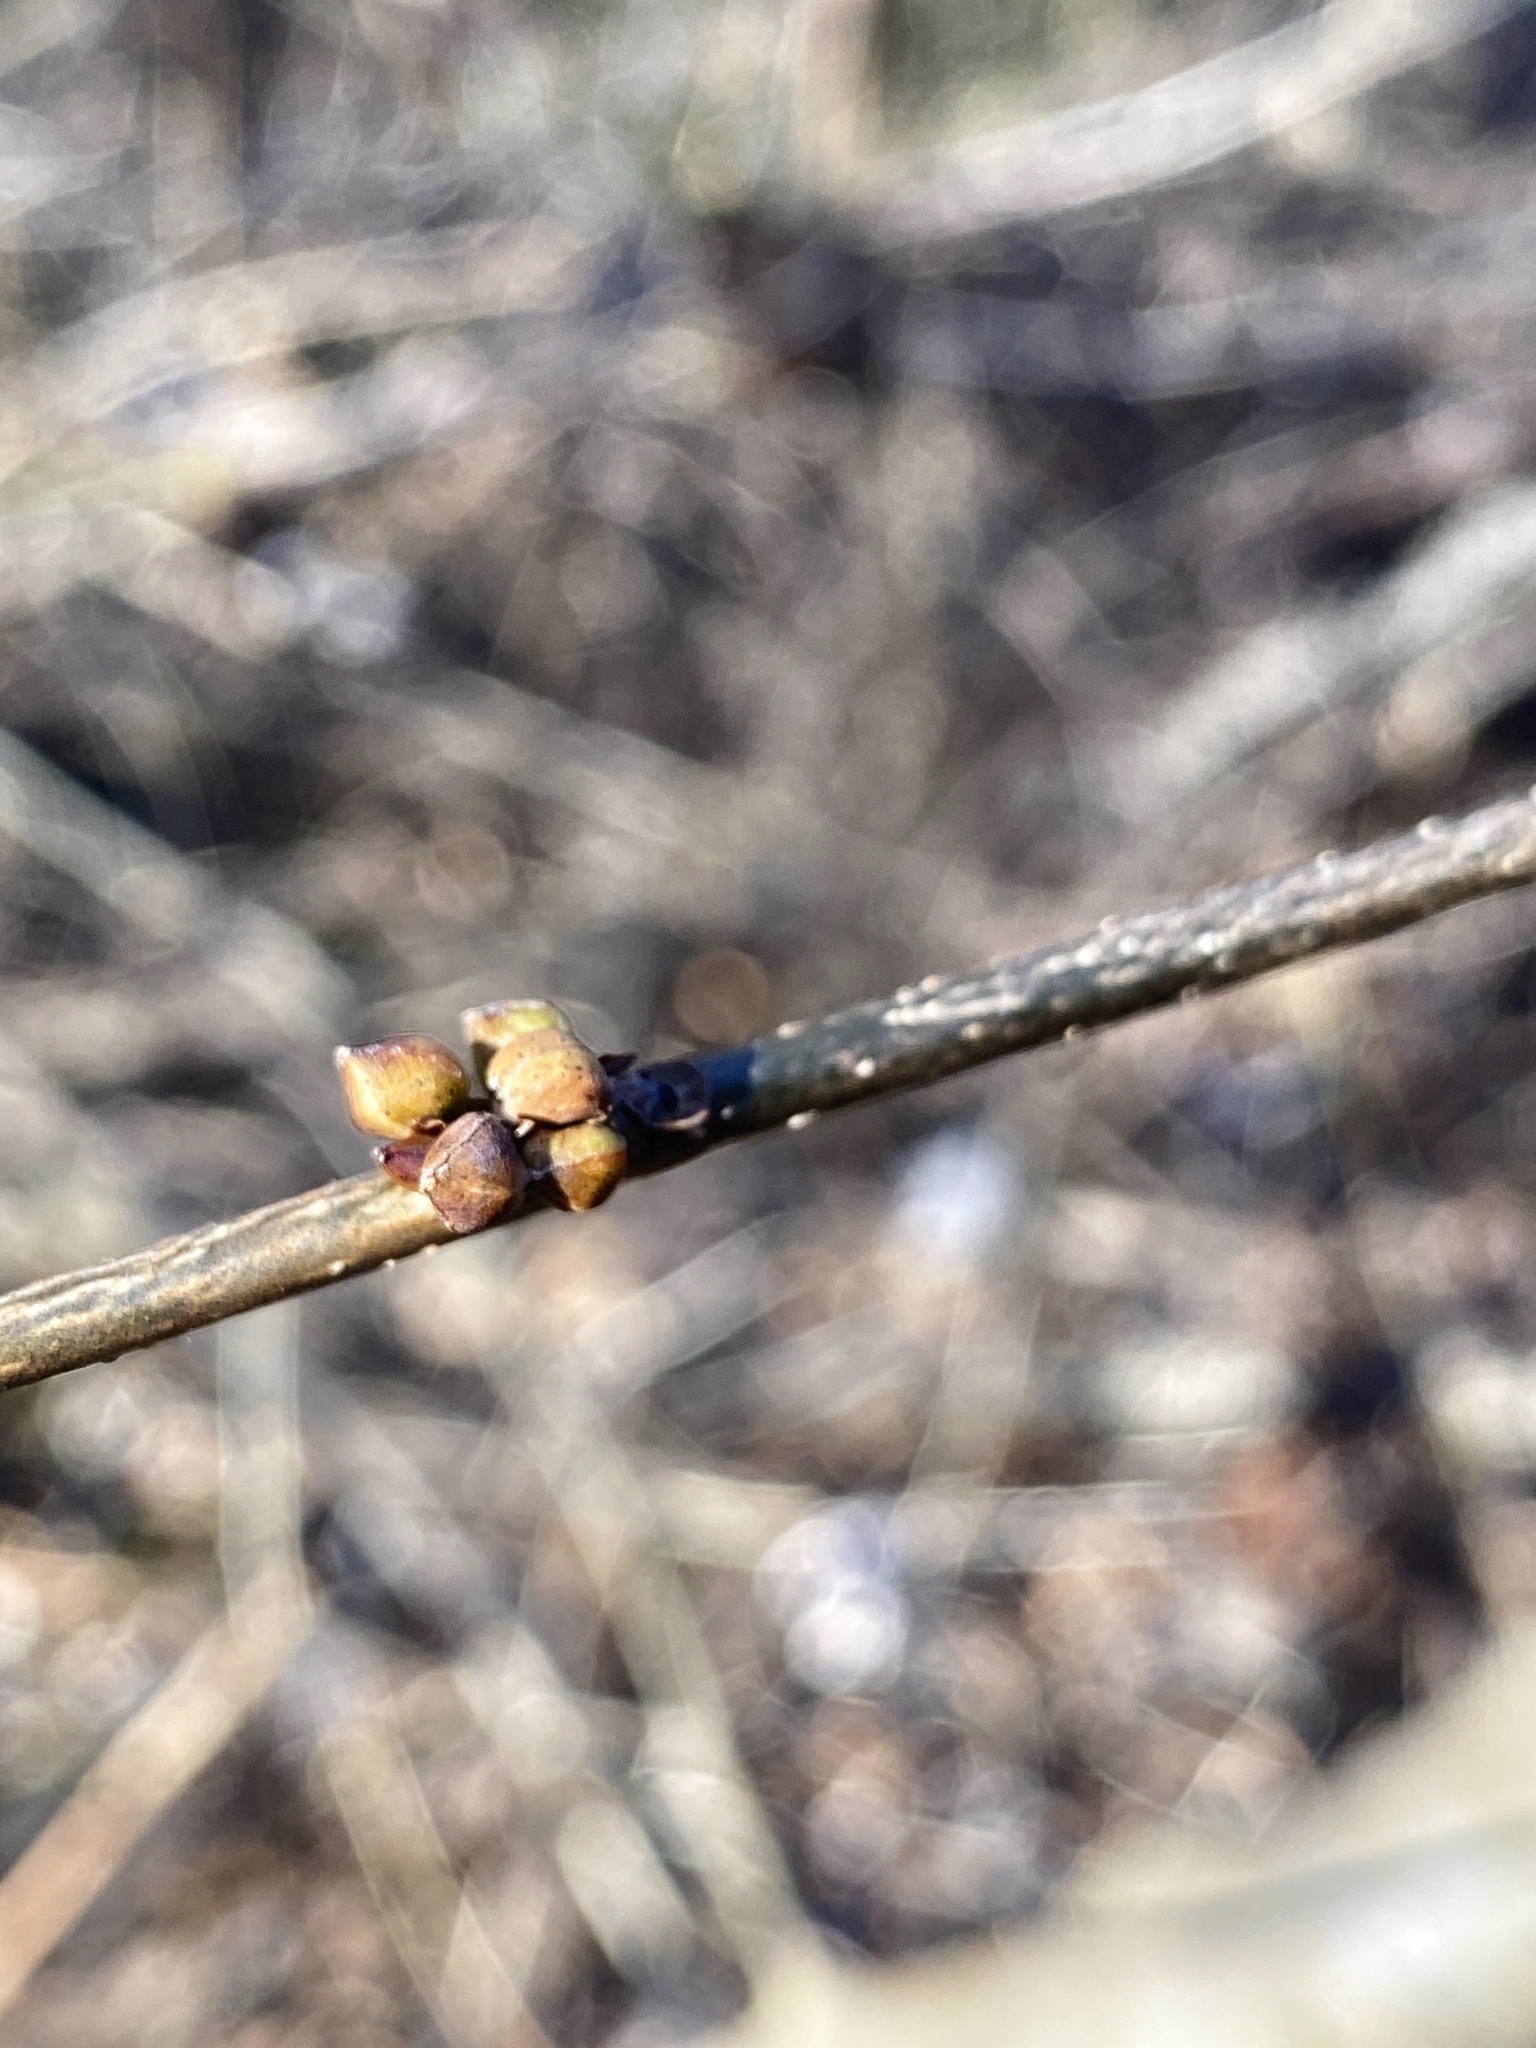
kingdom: Plantae
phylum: Tracheophyta
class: Magnoliopsida
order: Laurales
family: Lauraceae
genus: Lindera
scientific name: Lindera benzoin
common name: Spicebush
